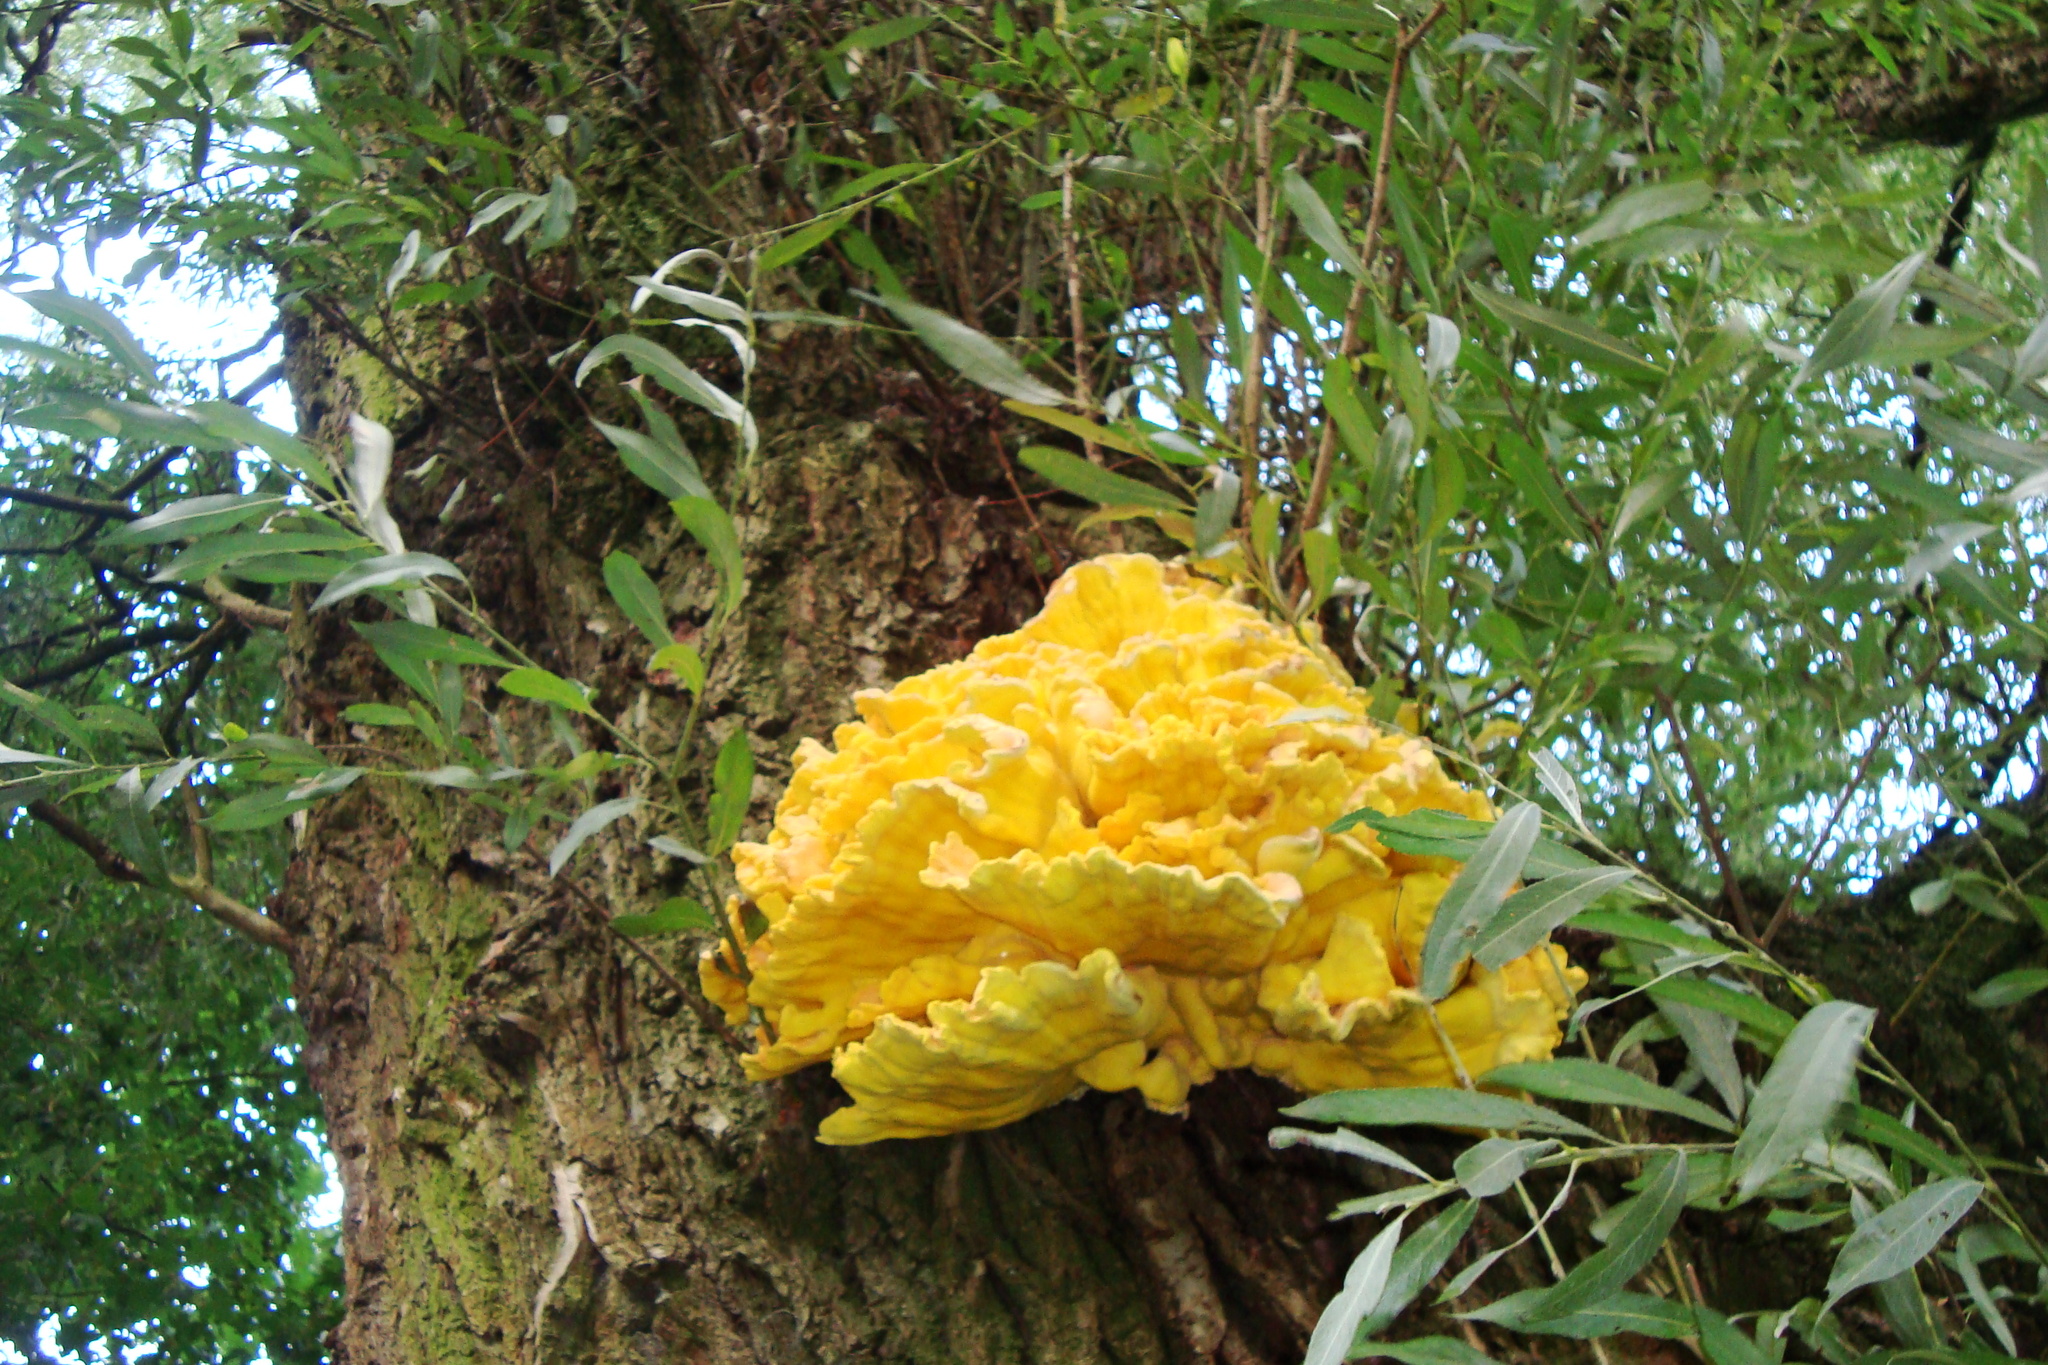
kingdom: Fungi
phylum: Basidiomycota
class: Agaricomycetes
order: Polyporales
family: Laetiporaceae
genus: Laetiporus
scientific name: Laetiporus sulphureus
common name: Chicken of the woods
